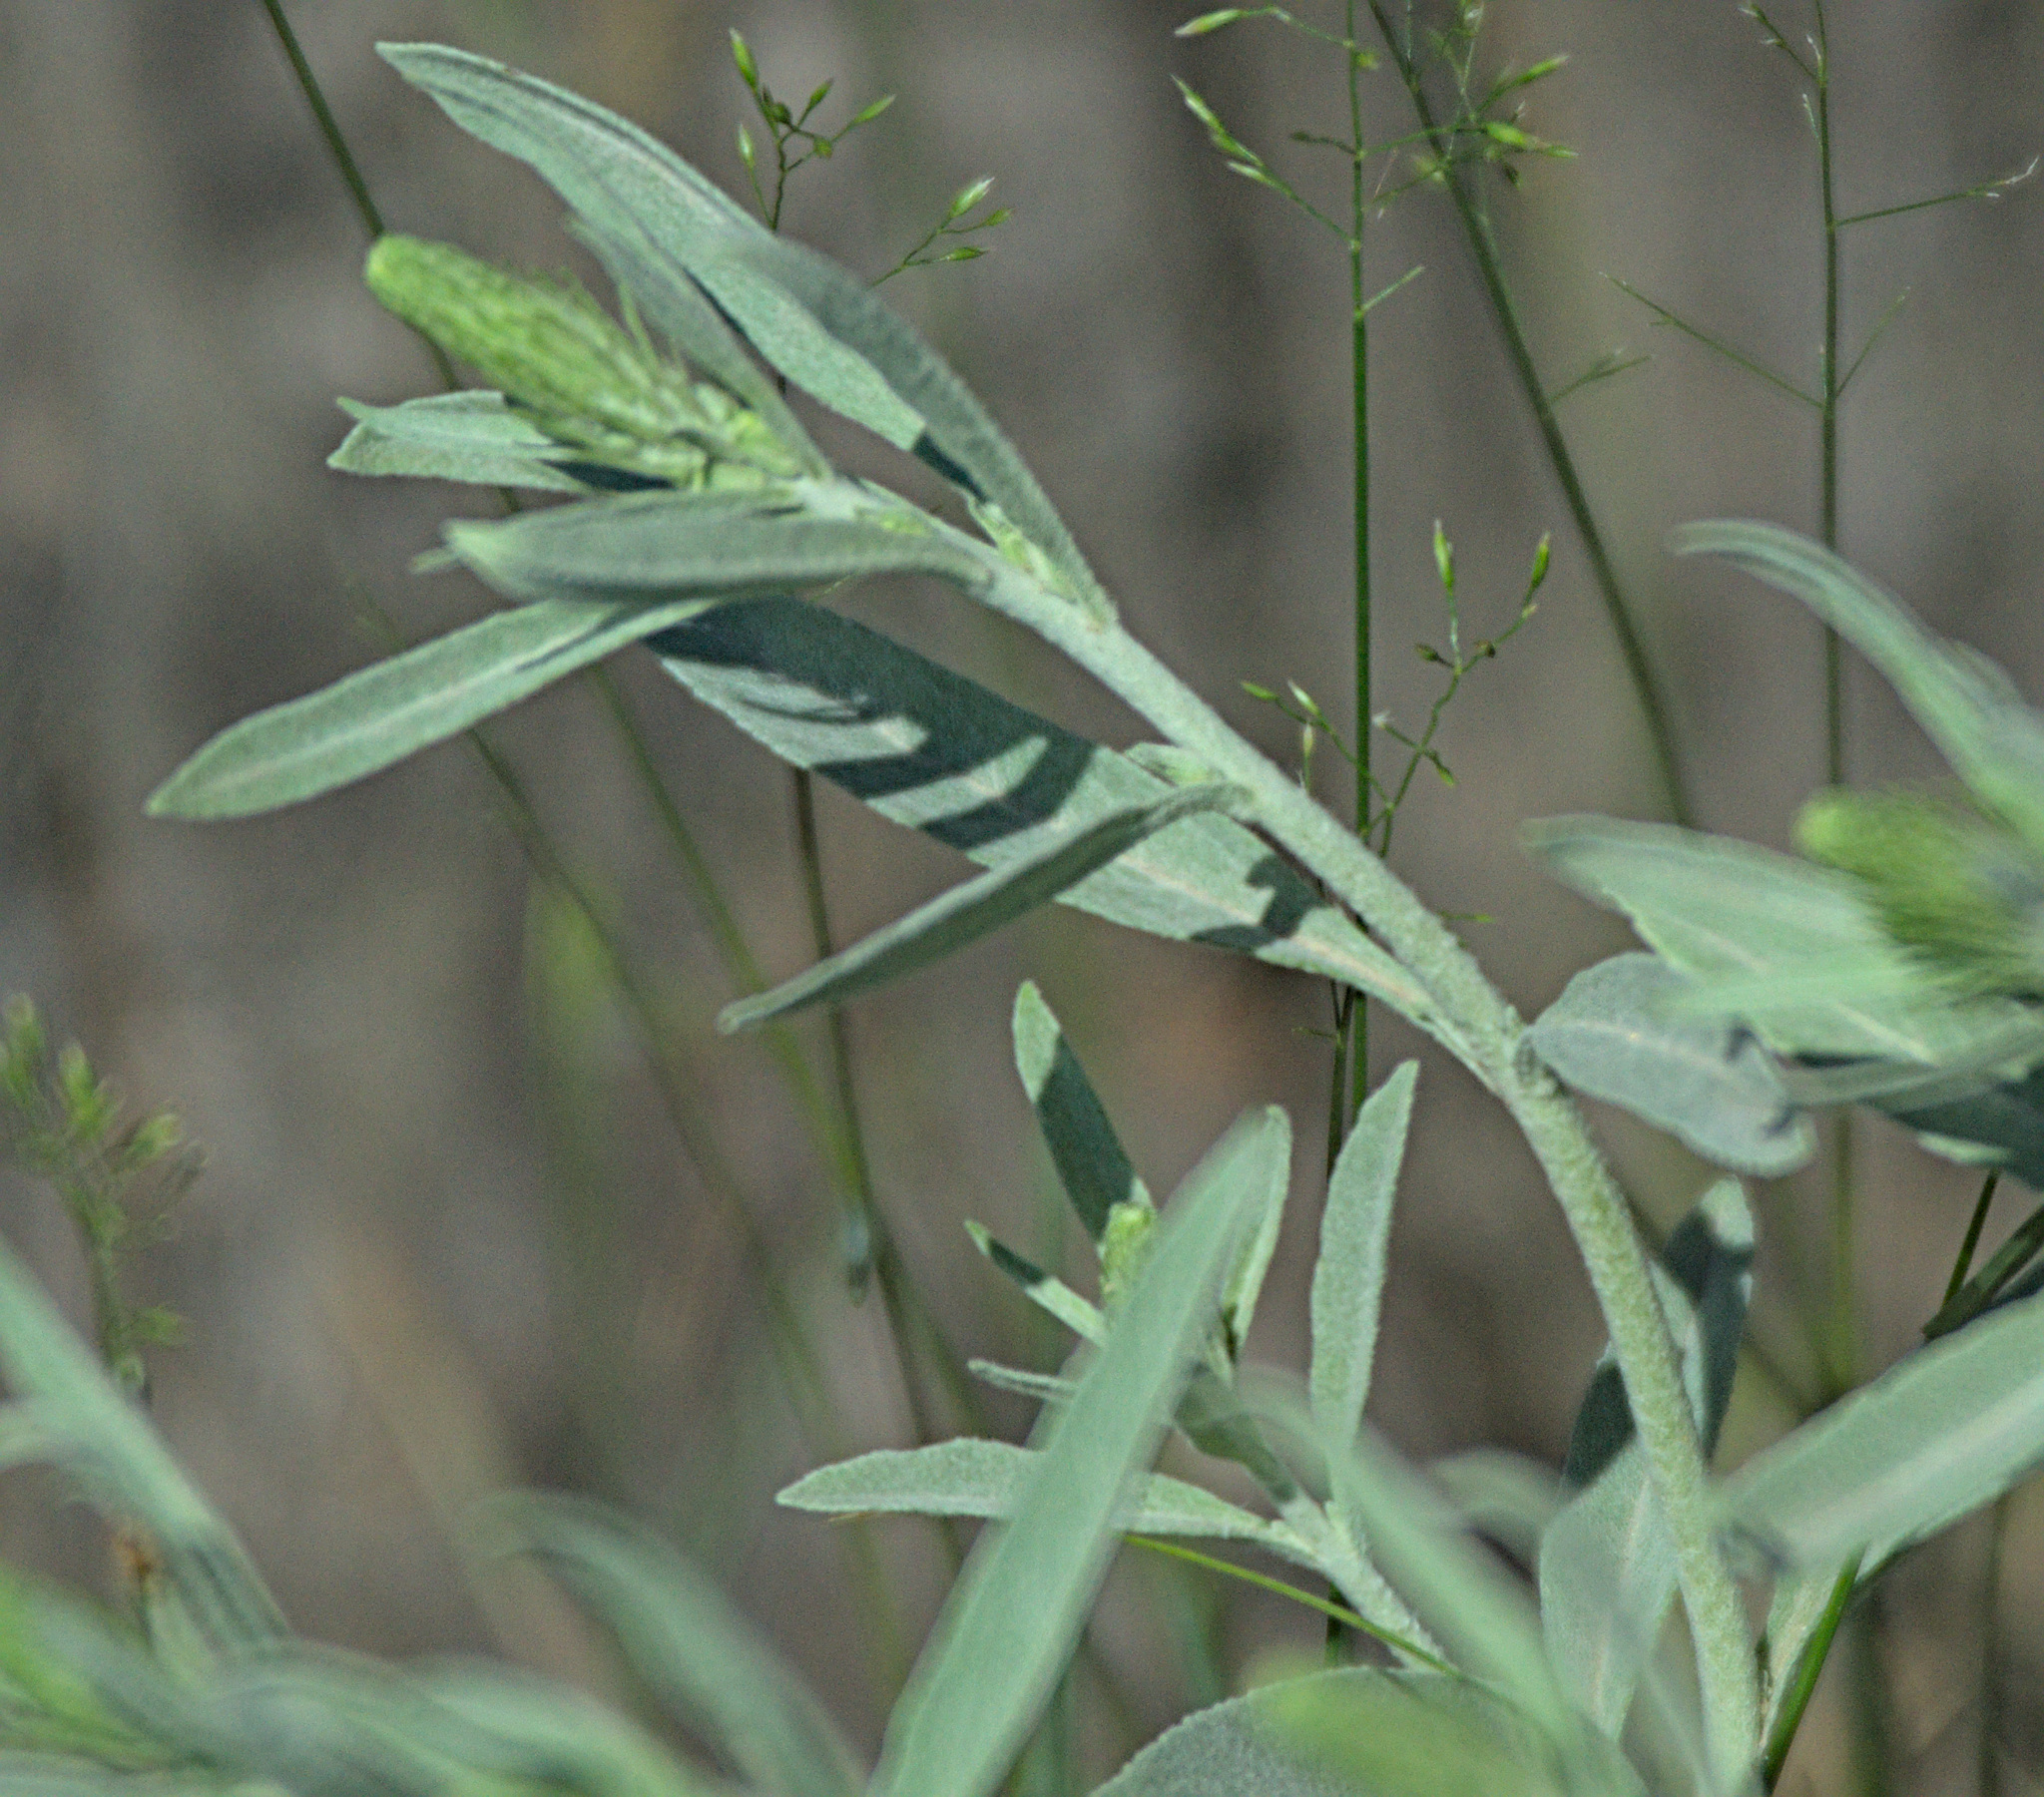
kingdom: Plantae
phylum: Tracheophyta
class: Magnoliopsida
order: Lamiales
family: Plantaginaceae
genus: Veronica
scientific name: Veronica incana
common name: Silver speedwell
